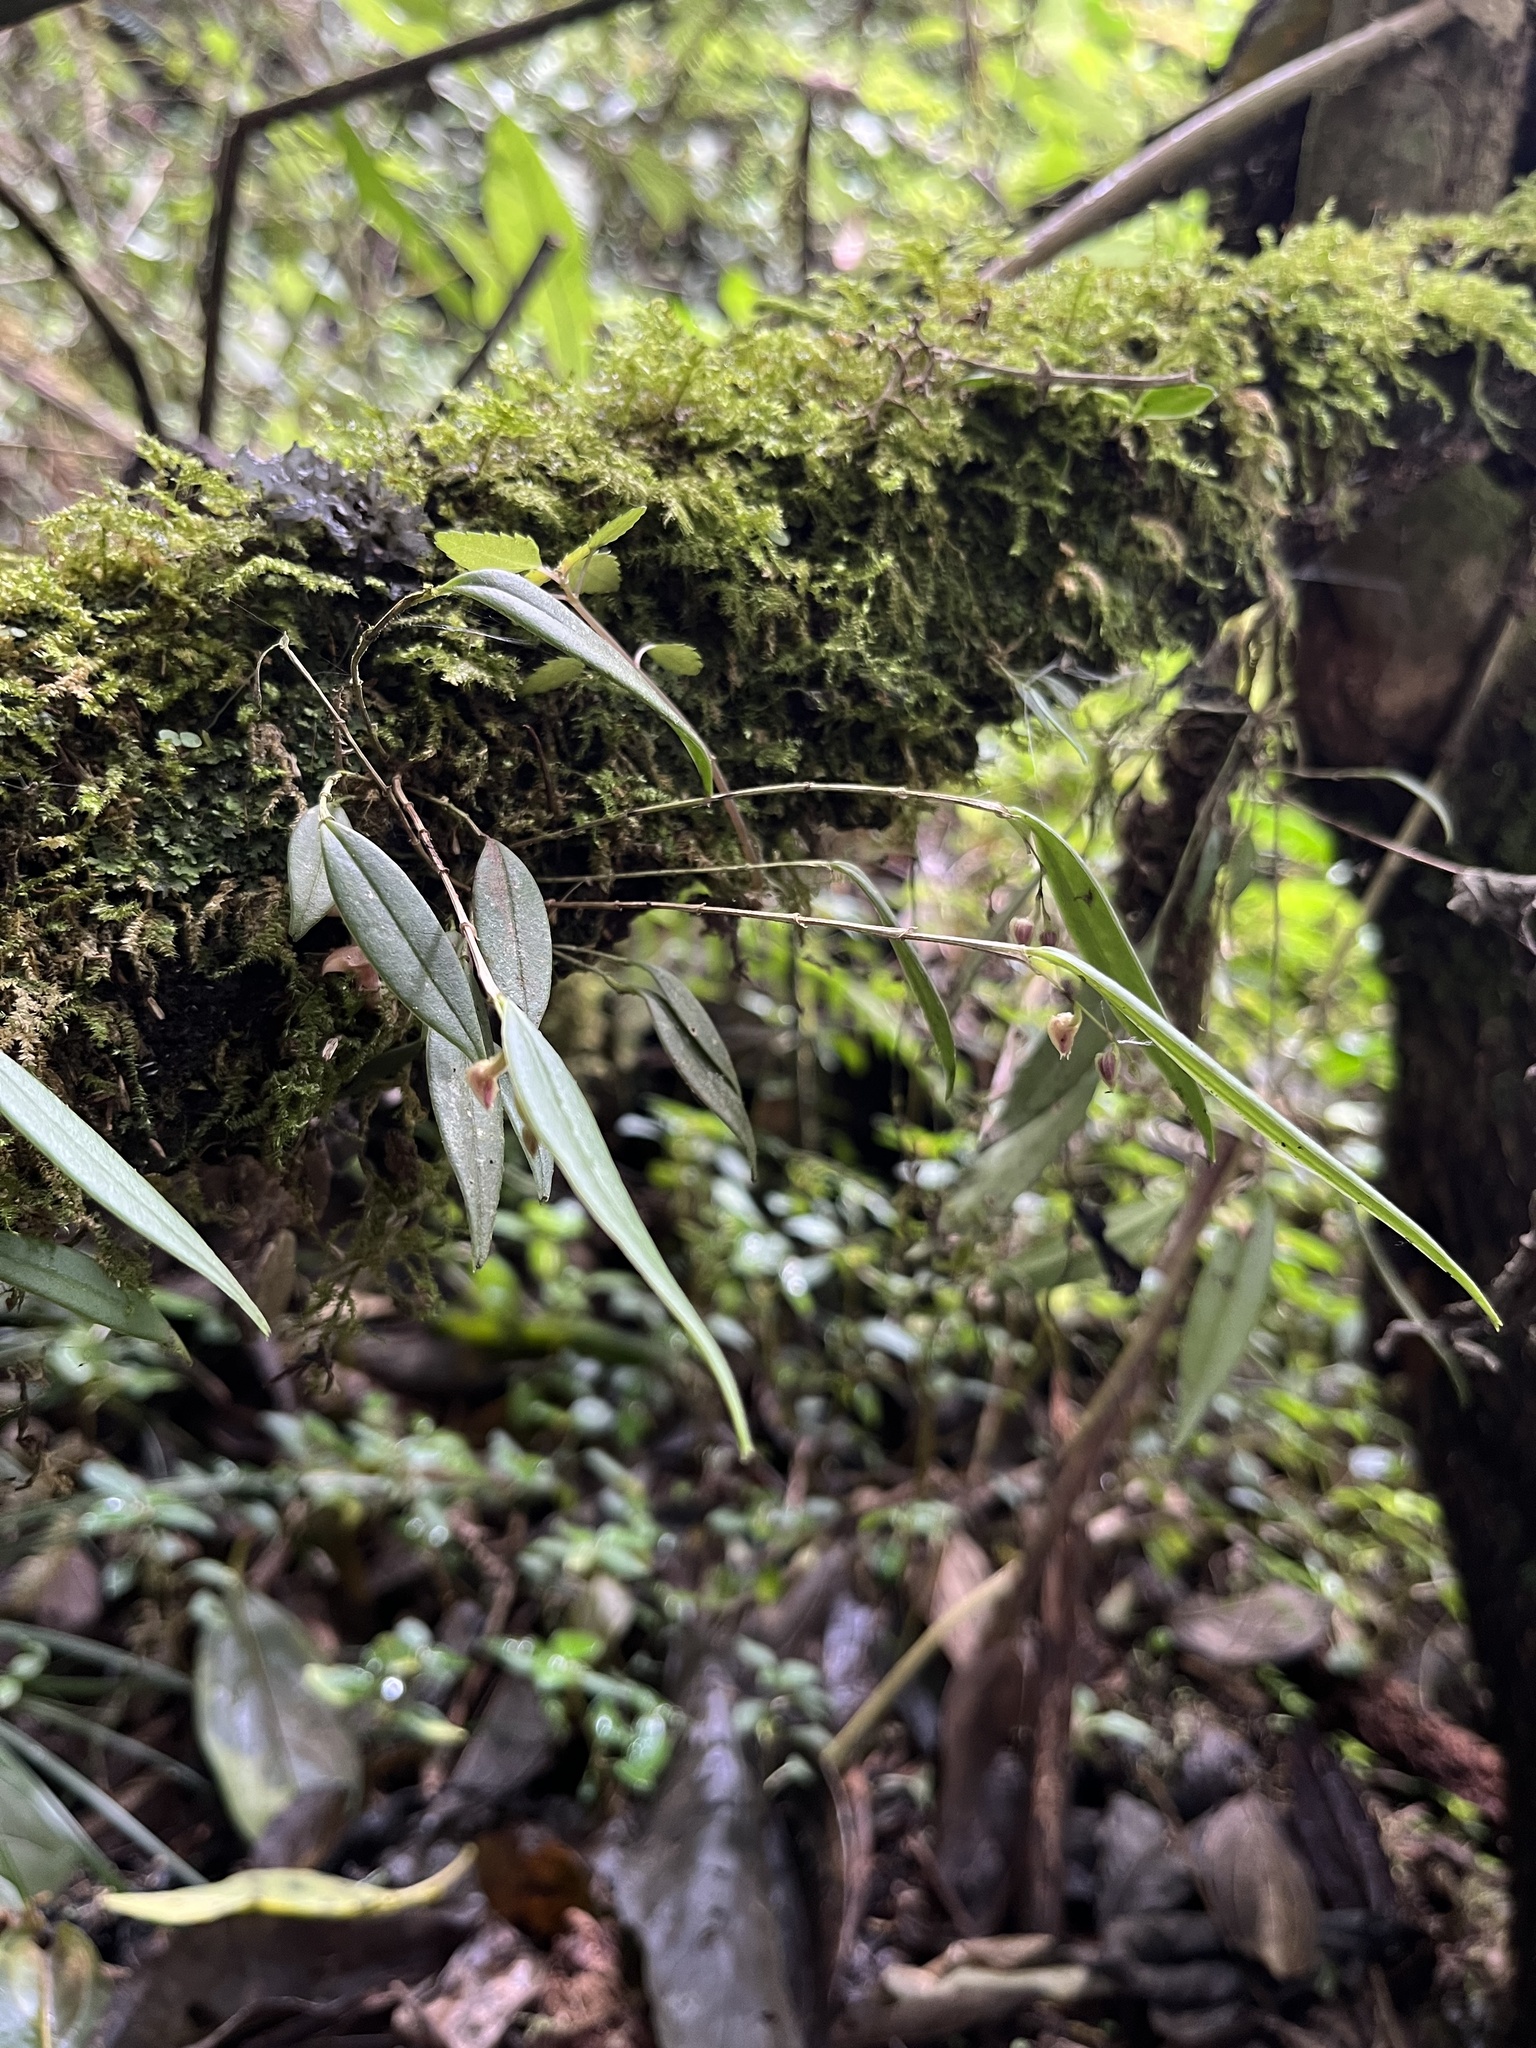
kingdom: Plantae
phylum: Tracheophyta
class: Liliopsida
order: Asparagales
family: Orchidaceae
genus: Lepanthes
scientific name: Lepanthes dunstervilleorum
